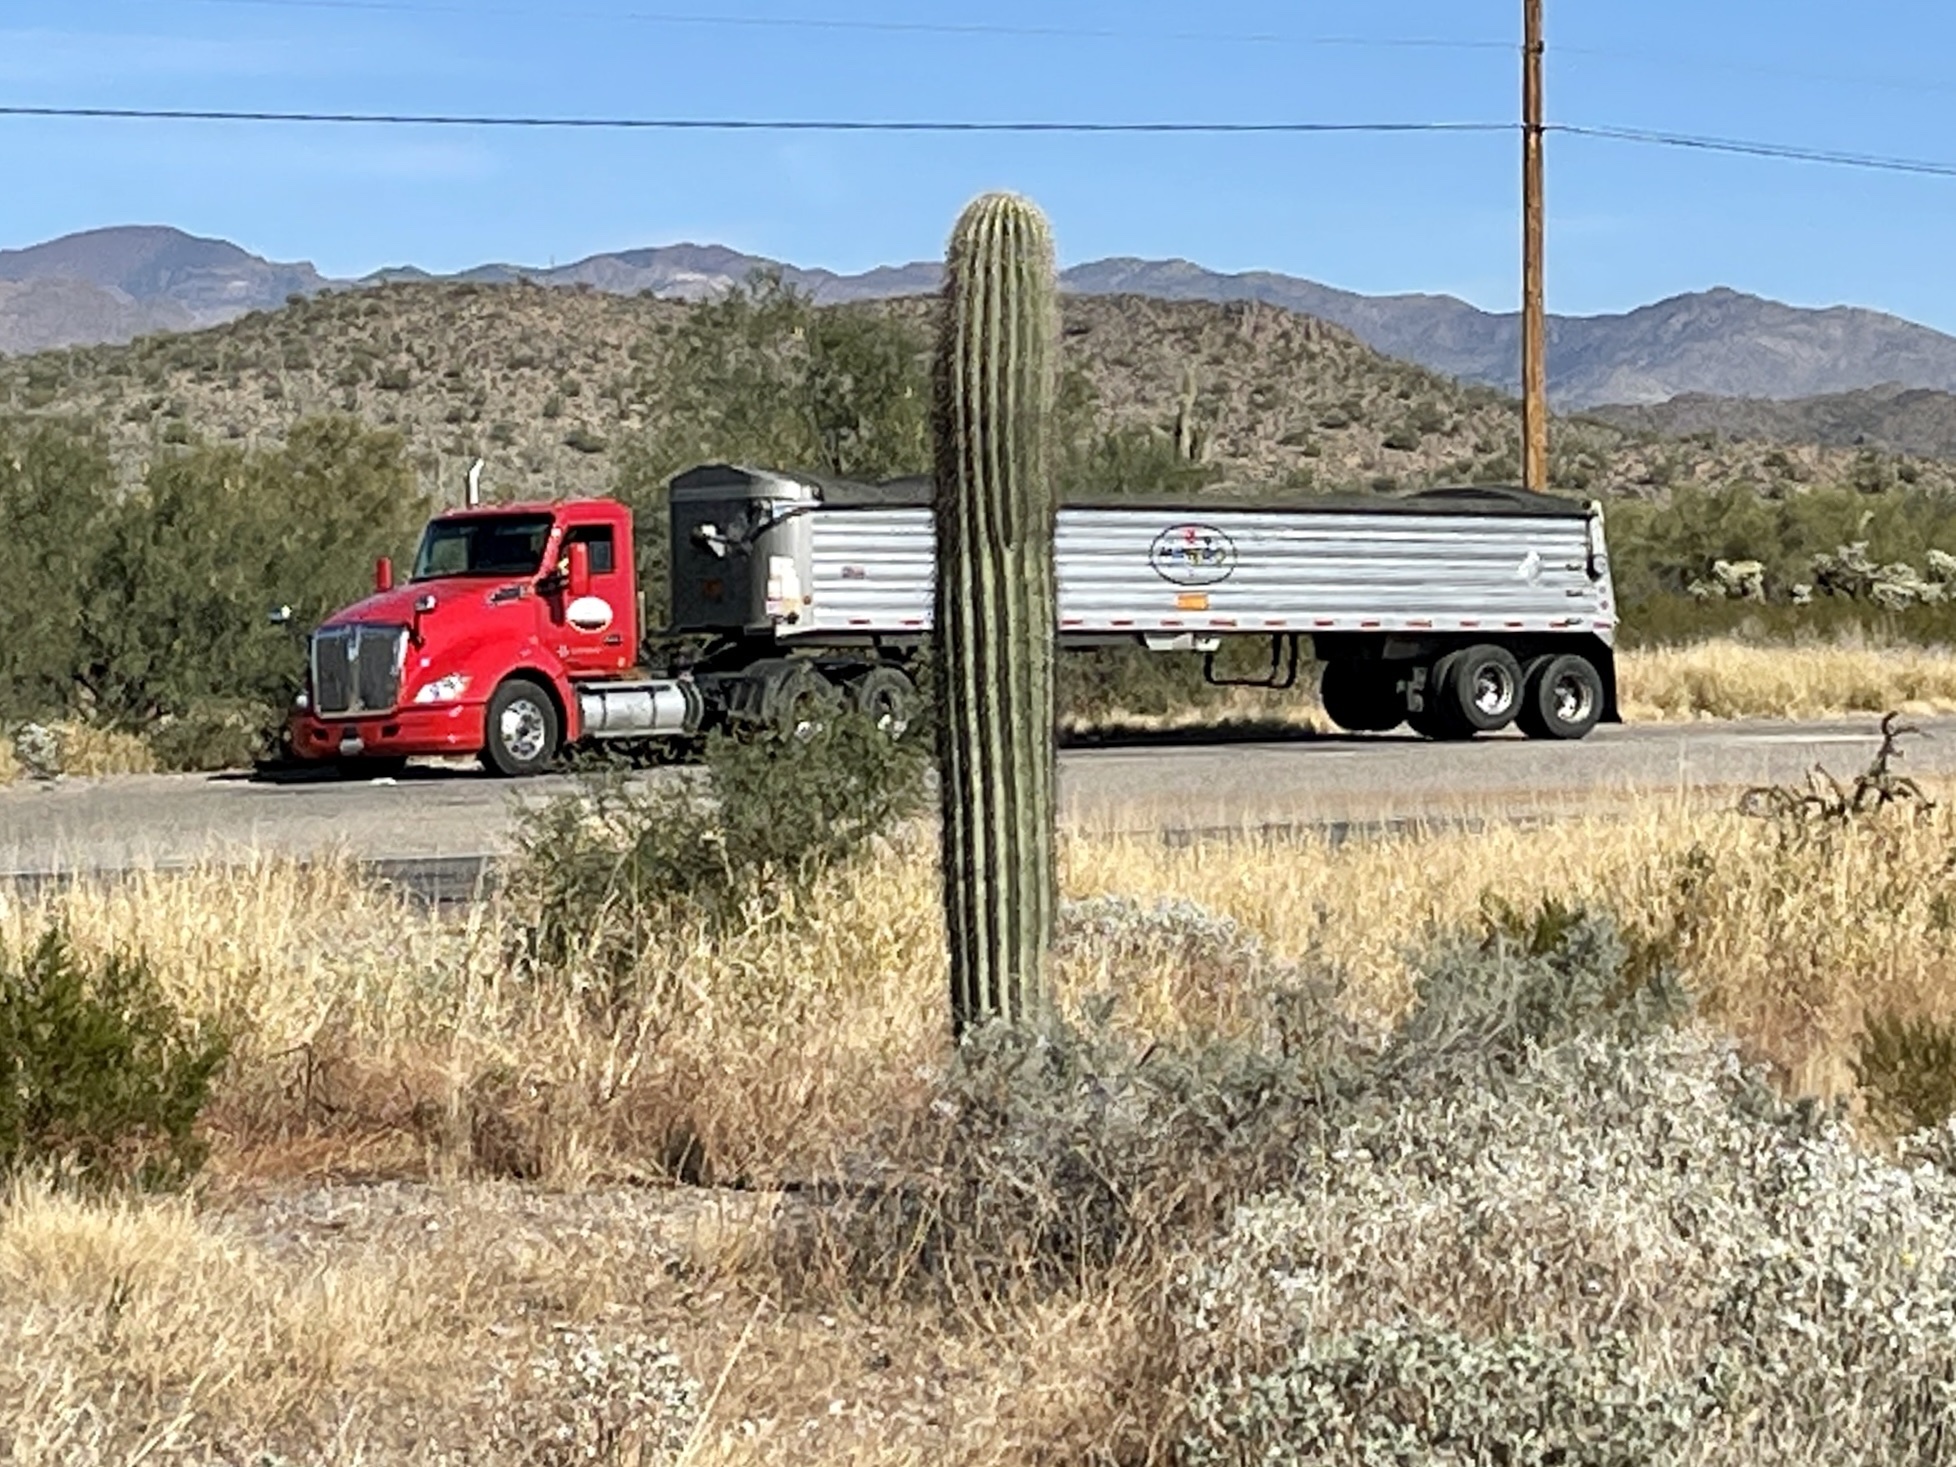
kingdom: Plantae
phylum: Tracheophyta
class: Magnoliopsida
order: Caryophyllales
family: Cactaceae
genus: Carnegiea
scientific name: Carnegiea gigantea
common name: Saguaro
